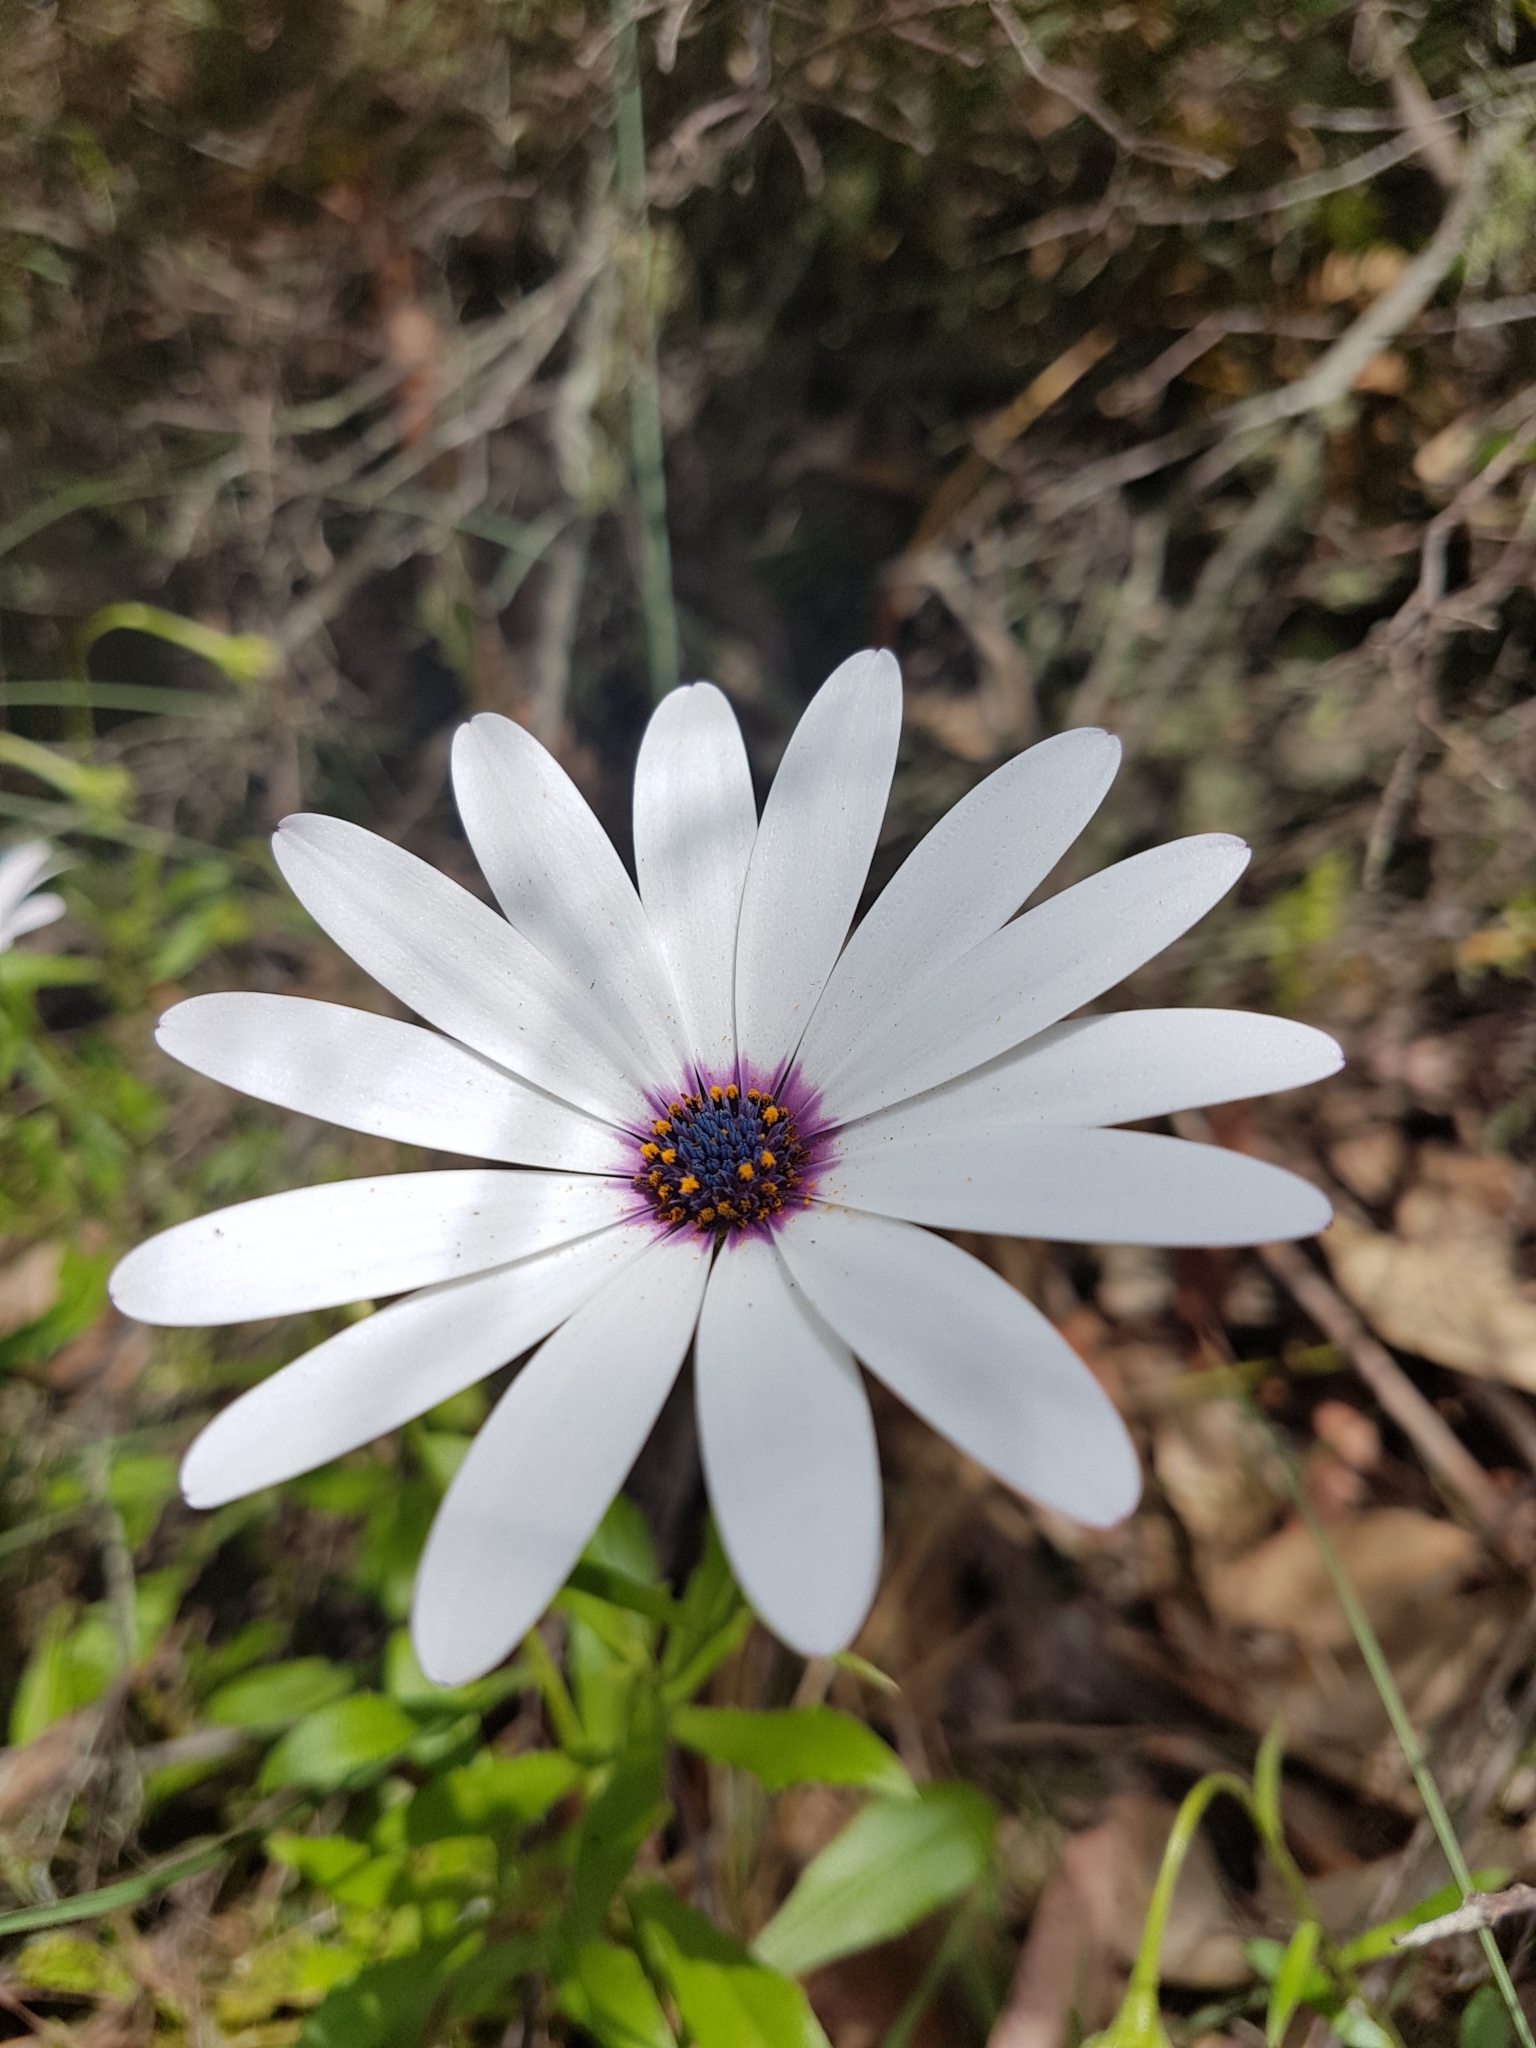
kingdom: Plantae
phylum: Tracheophyta
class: Magnoliopsida
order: Asterales
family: Asteraceae
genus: Dimorphotheca
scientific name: Dimorphotheca ecklonis
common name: Vanstaden's river daisy
